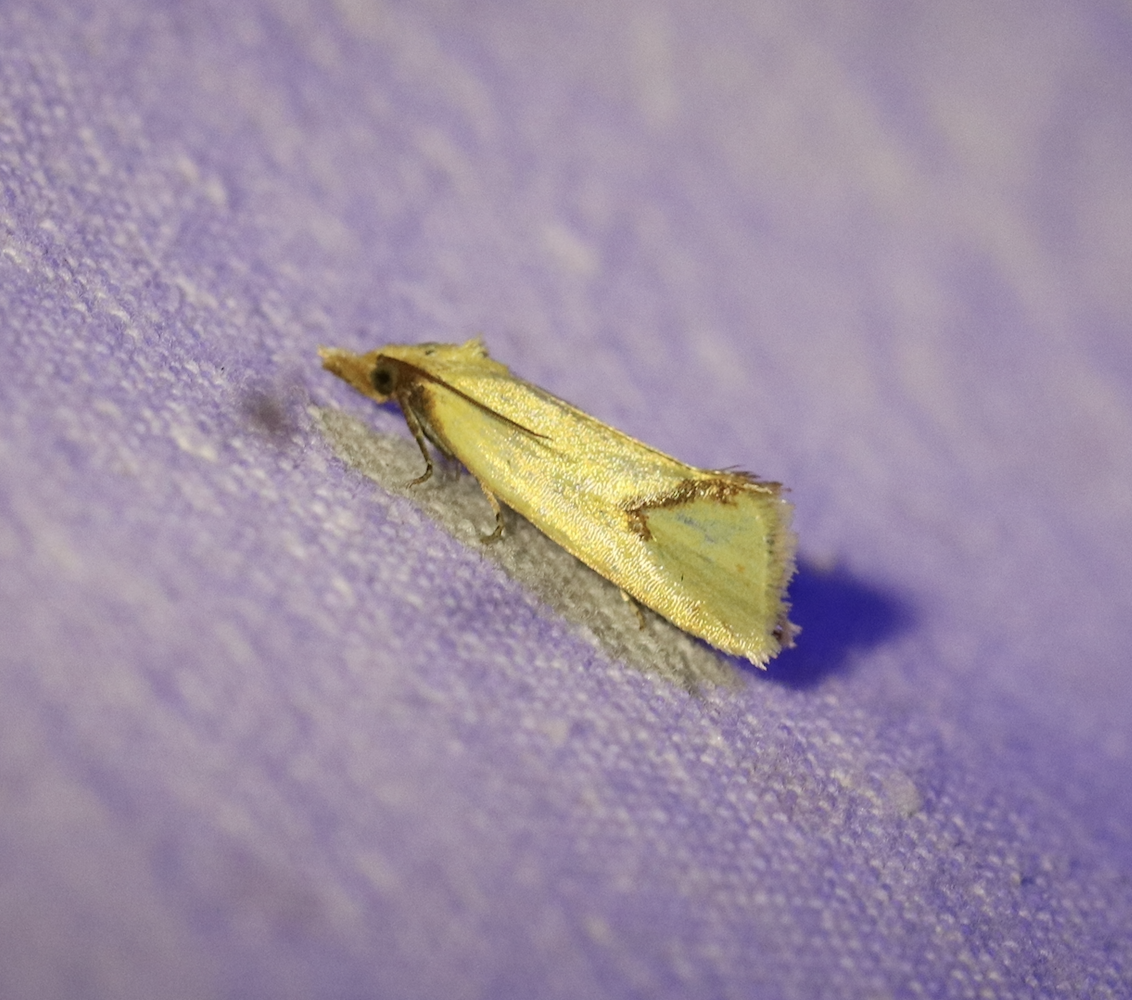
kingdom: Animalia
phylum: Arthropoda
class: Insecta
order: Lepidoptera
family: Tortricidae
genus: Agapeta
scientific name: Agapeta hamana
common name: Common yellow conch
